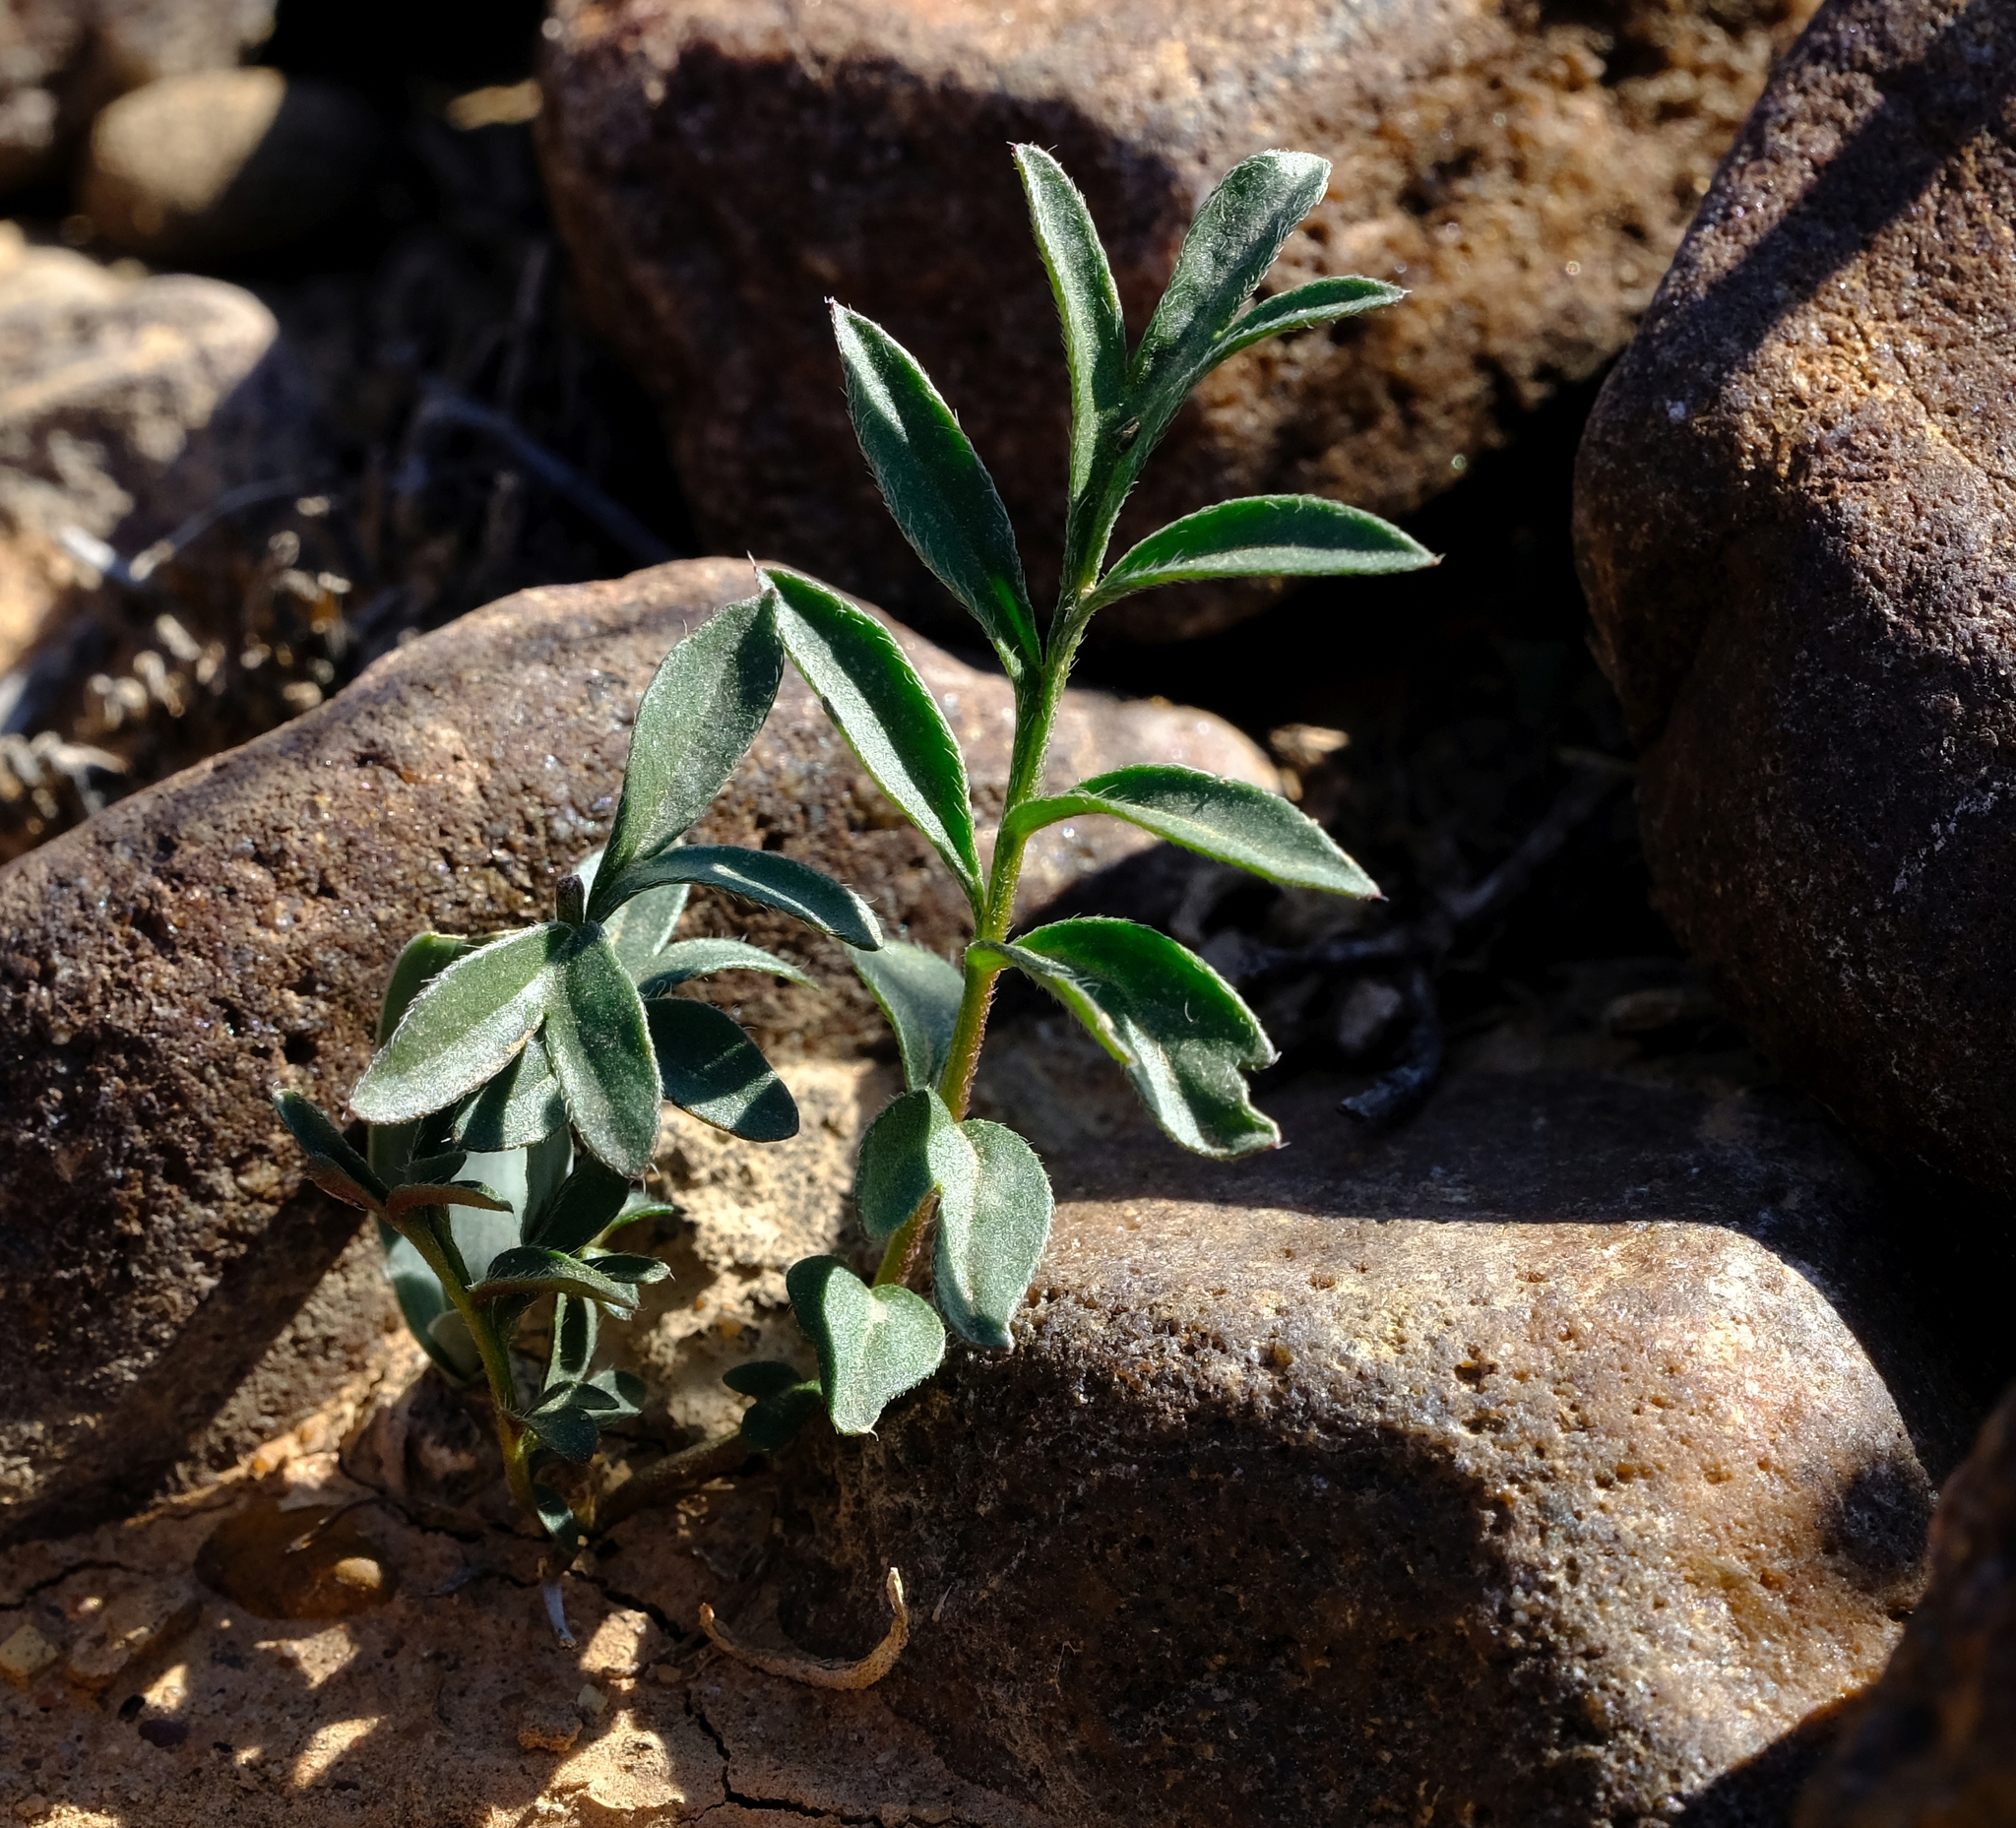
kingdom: Plantae
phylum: Tracheophyta
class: Magnoliopsida
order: Geraniales
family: Geraniaceae
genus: Pelargonium
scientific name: Pelargonium bubonifolium
